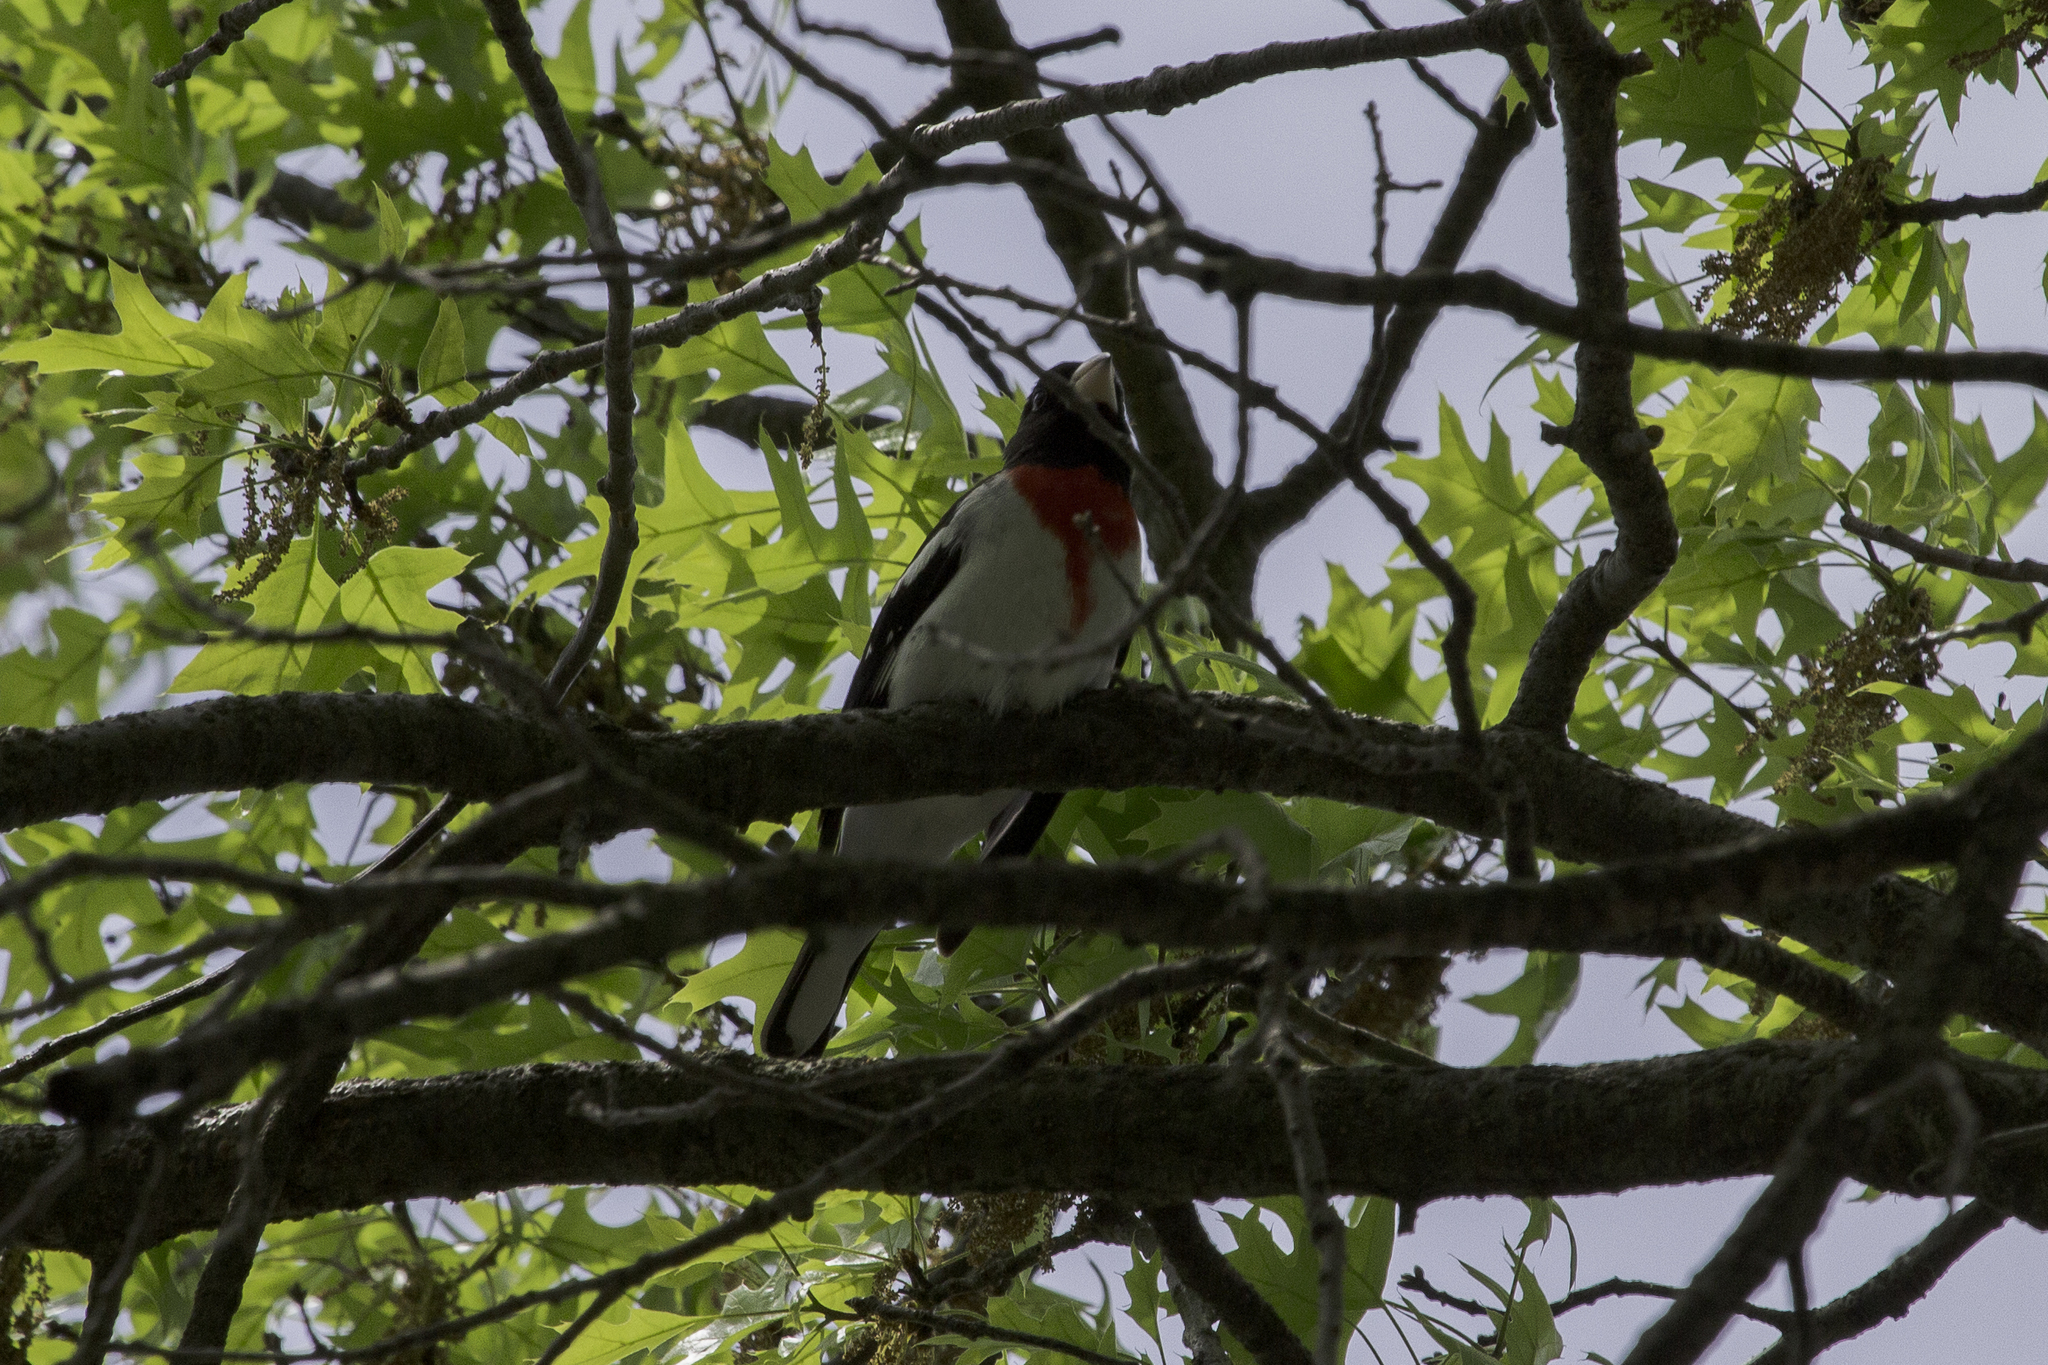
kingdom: Animalia
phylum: Chordata
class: Aves
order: Passeriformes
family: Cardinalidae
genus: Pheucticus
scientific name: Pheucticus ludovicianus
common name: Rose-breasted grosbeak
